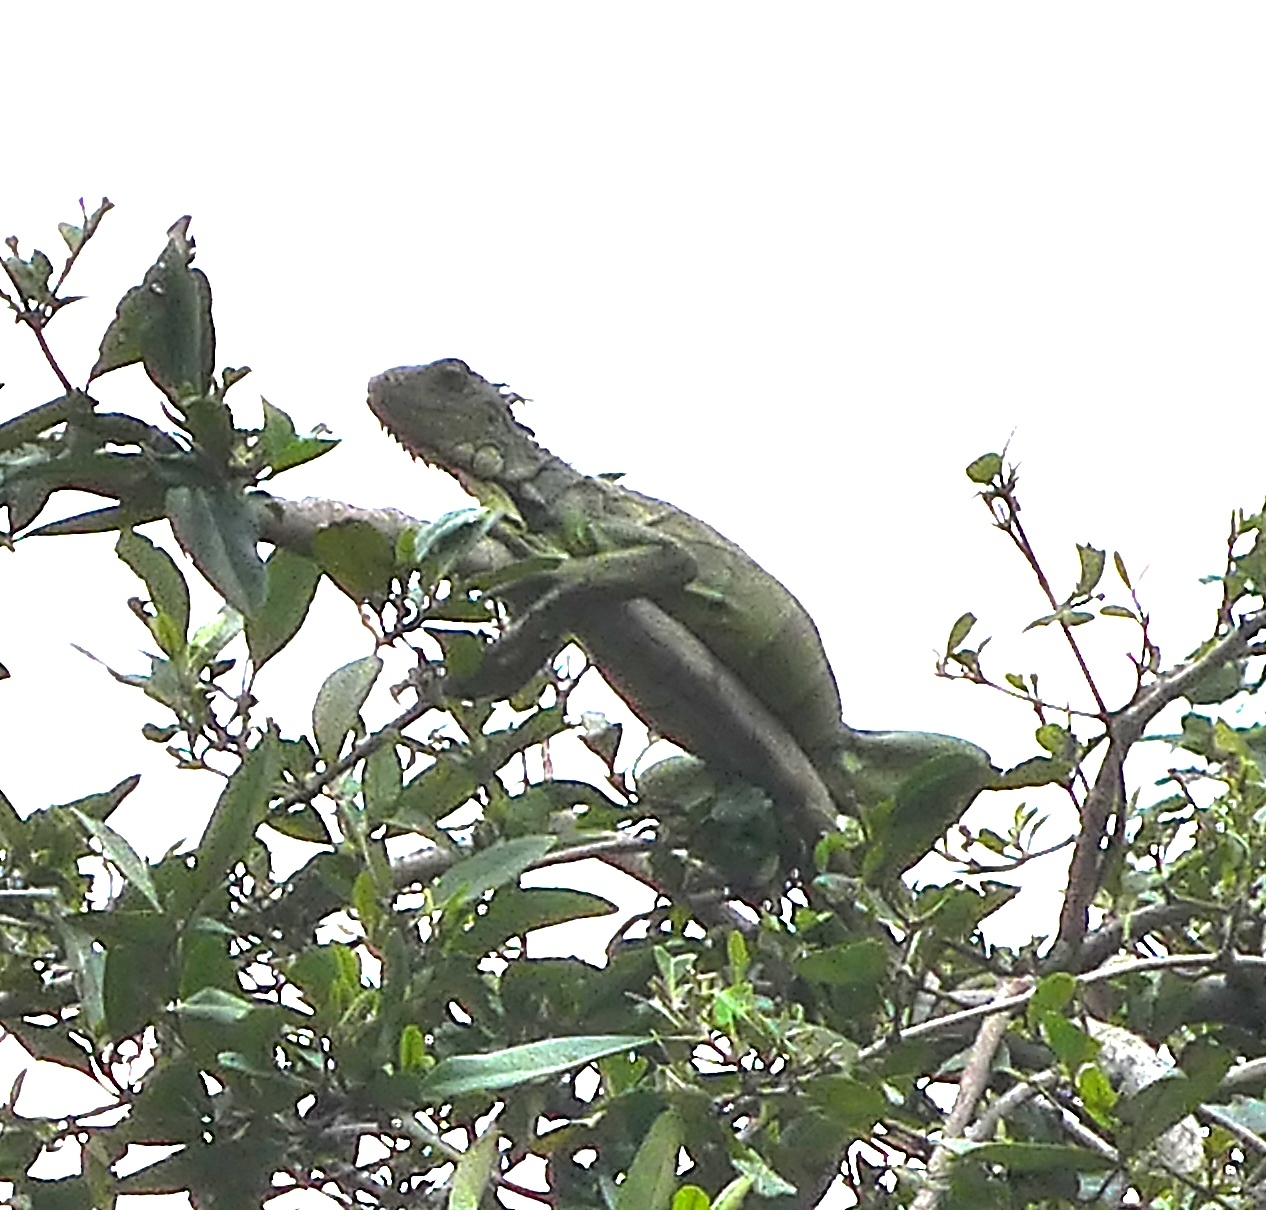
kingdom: Animalia
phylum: Chordata
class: Squamata
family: Iguanidae
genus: Iguana
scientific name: Iguana iguana
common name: Green iguana
